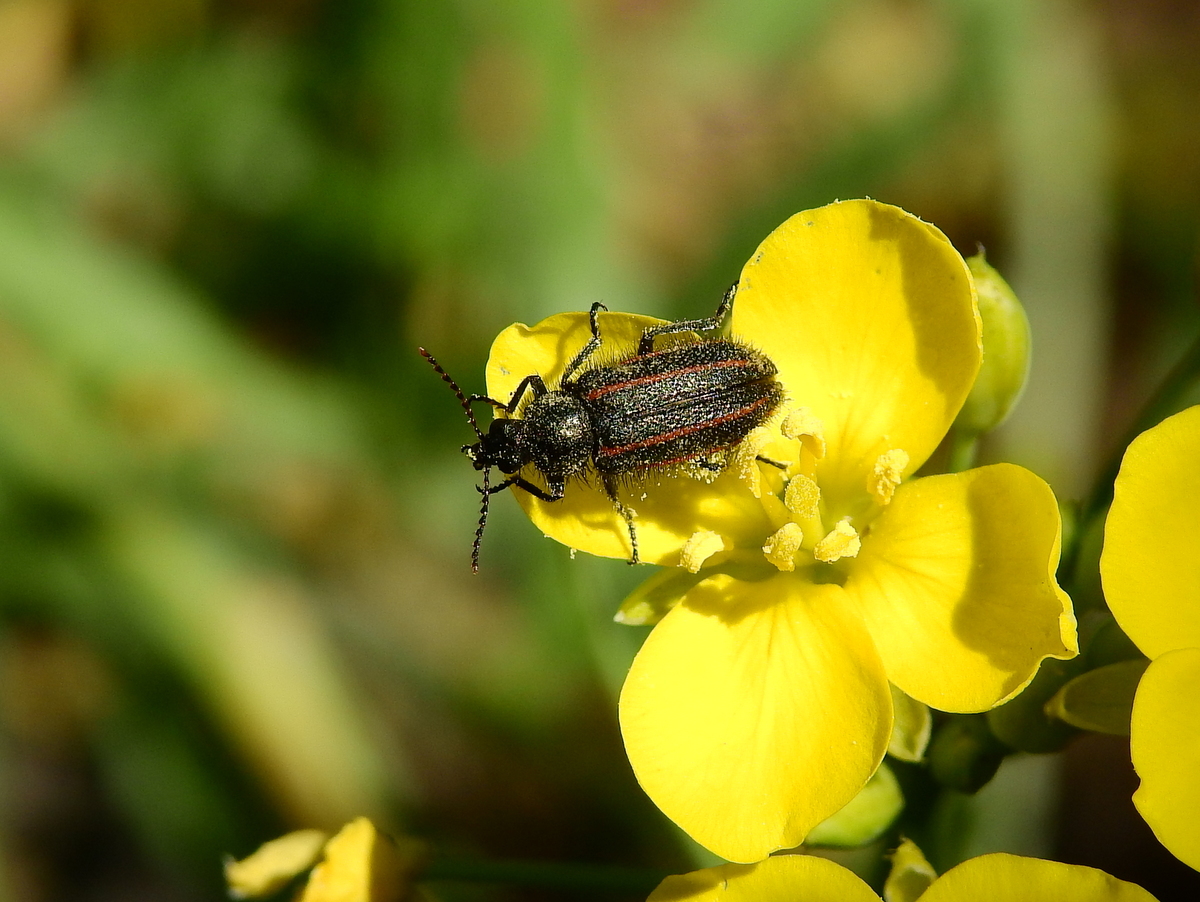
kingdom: Animalia
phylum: Arthropoda
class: Insecta
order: Coleoptera
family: Melyridae
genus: Astylus
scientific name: Astylus
